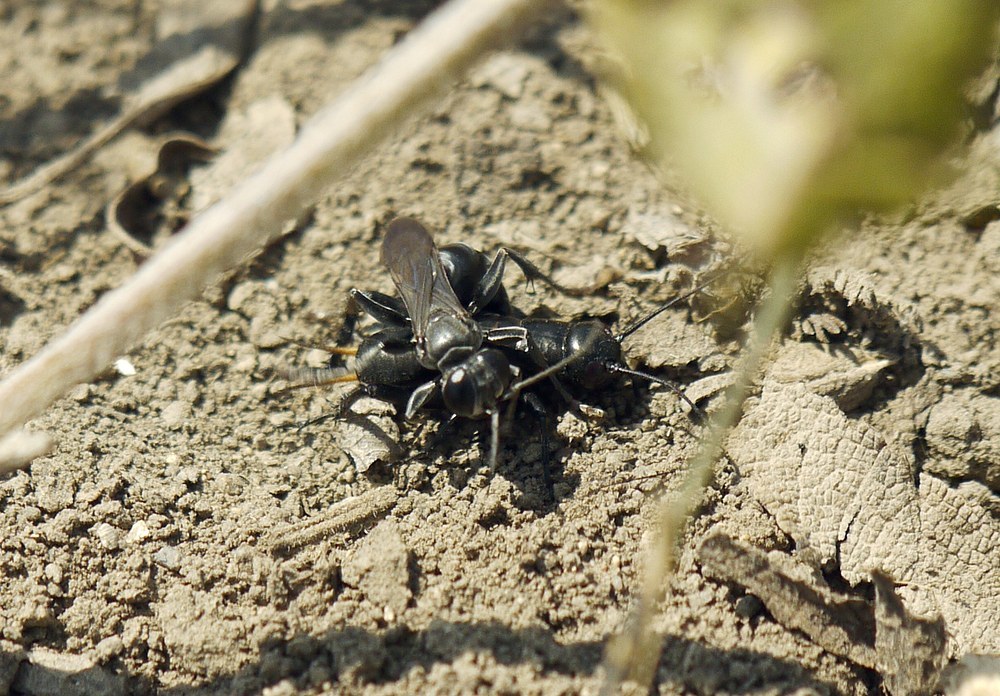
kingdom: Animalia
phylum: Arthropoda
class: Insecta
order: Orthoptera
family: Gryllidae
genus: Gryllus
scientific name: Gryllus campestris
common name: Field cricket
